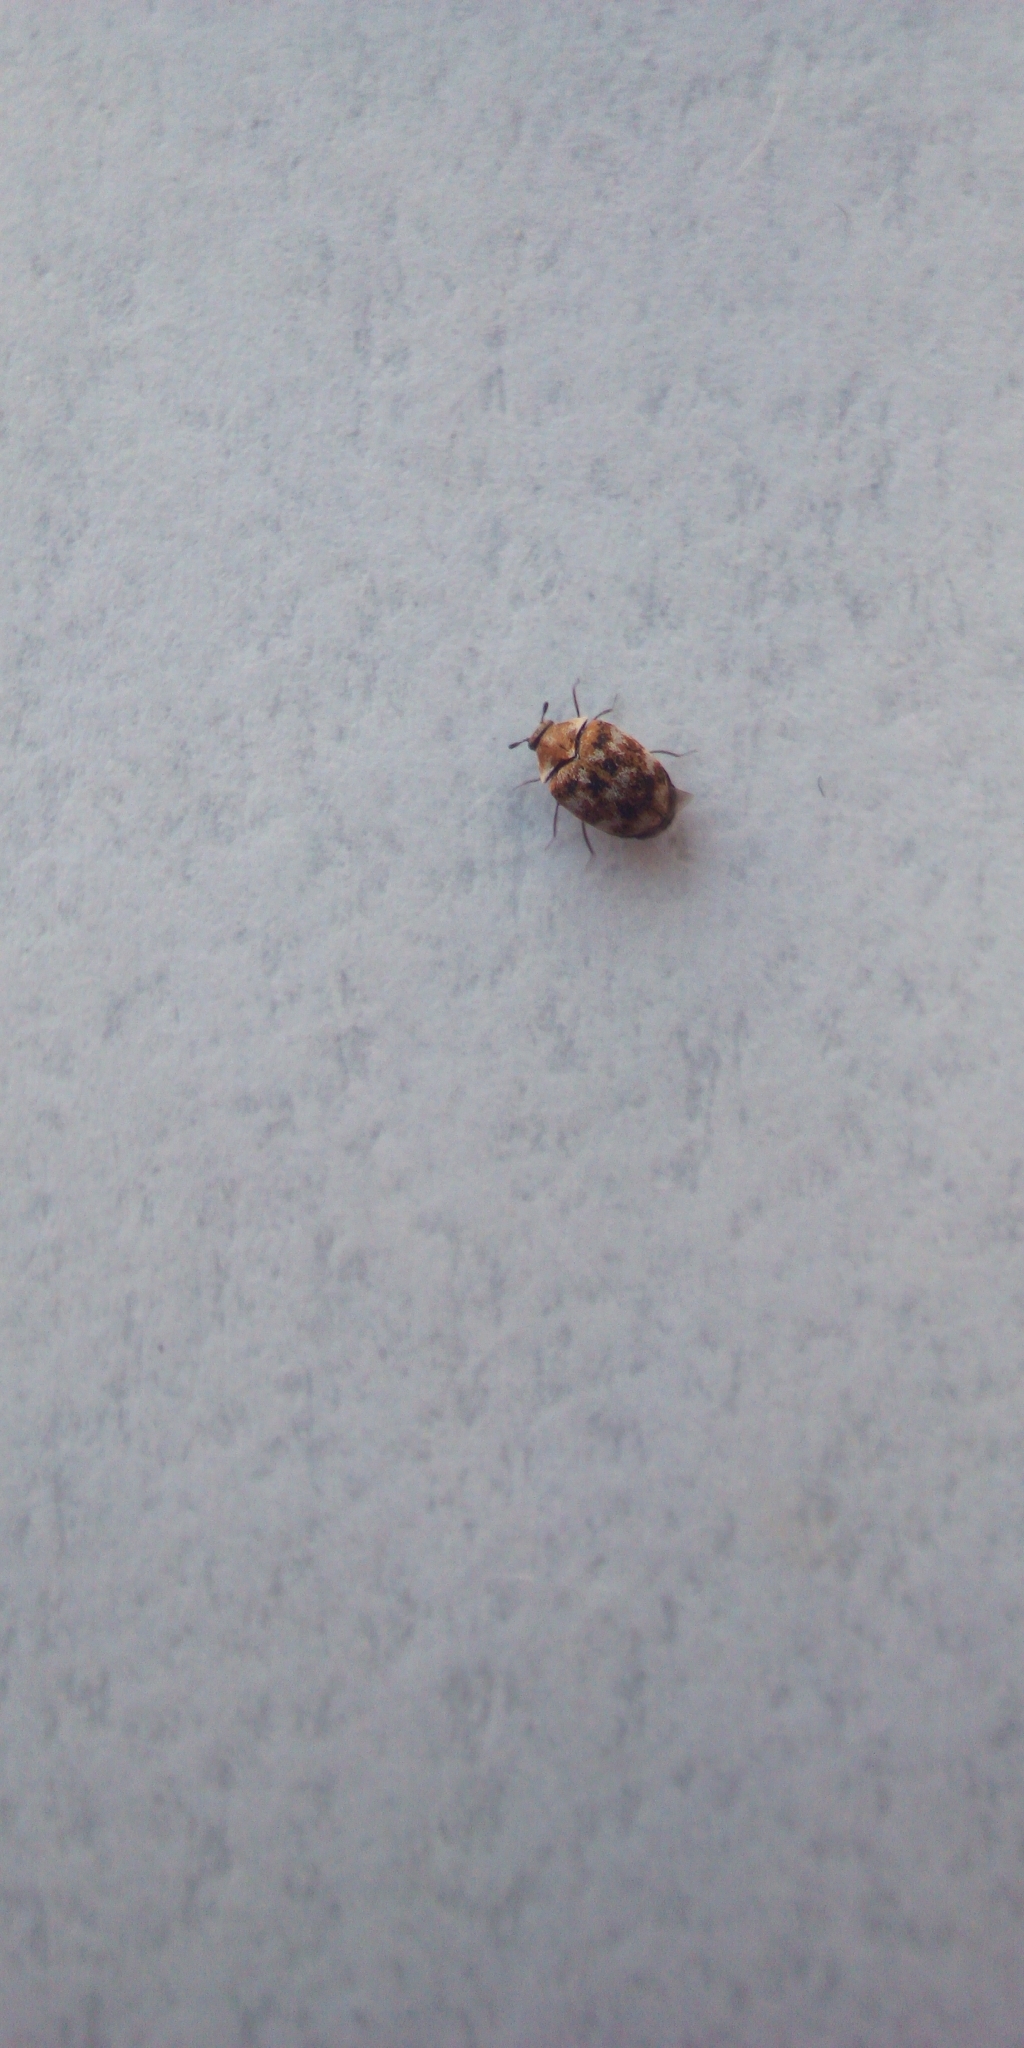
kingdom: Animalia
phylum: Arthropoda
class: Insecta
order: Coleoptera
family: Dermestidae
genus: Anthrenus
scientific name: Anthrenus verbasci
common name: Varied carpet beetle
